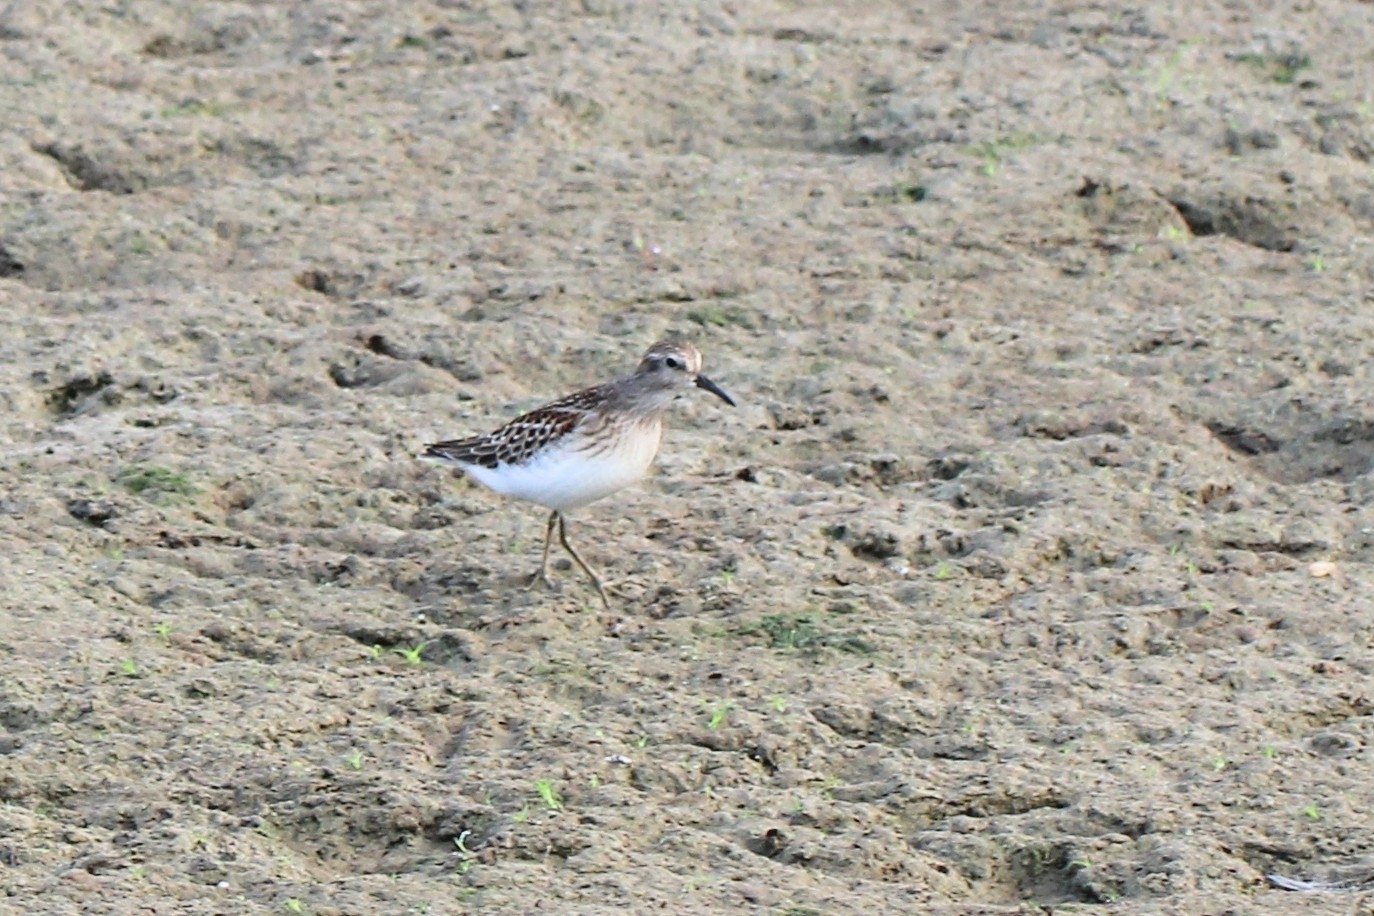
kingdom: Animalia
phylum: Chordata
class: Aves
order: Charadriiformes
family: Scolopacidae
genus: Calidris
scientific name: Calidris minutilla
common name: Least sandpiper
